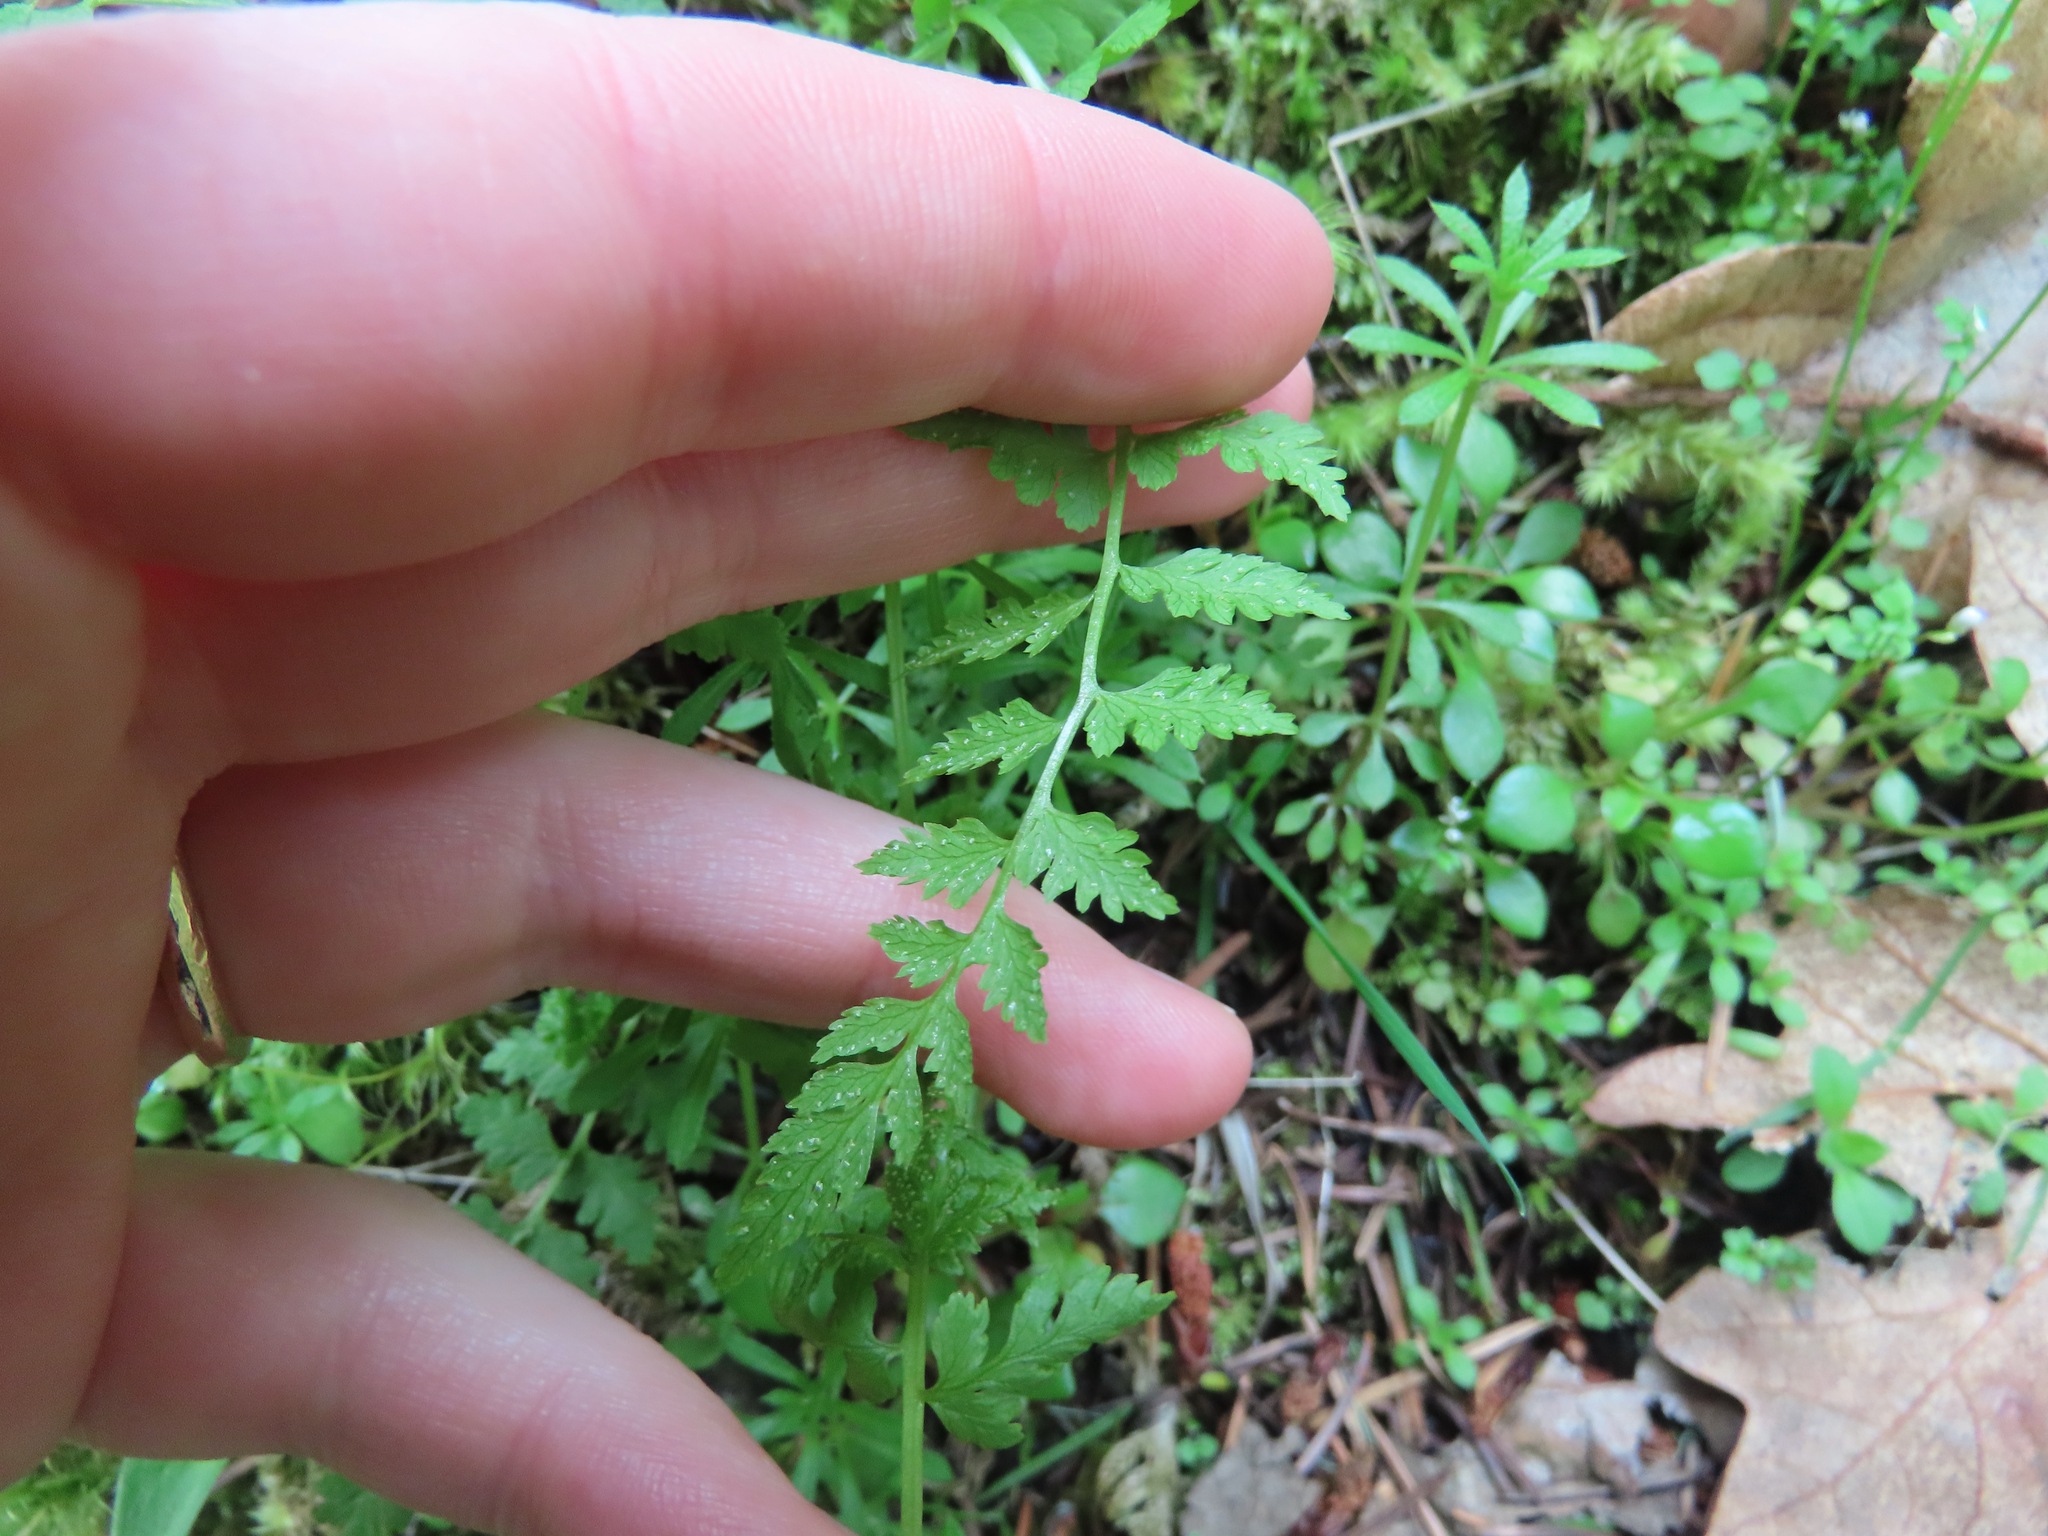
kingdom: Plantae
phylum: Tracheophyta
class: Polypodiopsida
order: Polypodiales
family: Cystopteridaceae
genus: Cystopteris
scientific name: Cystopteris fragilis
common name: Brittle bladder fern
